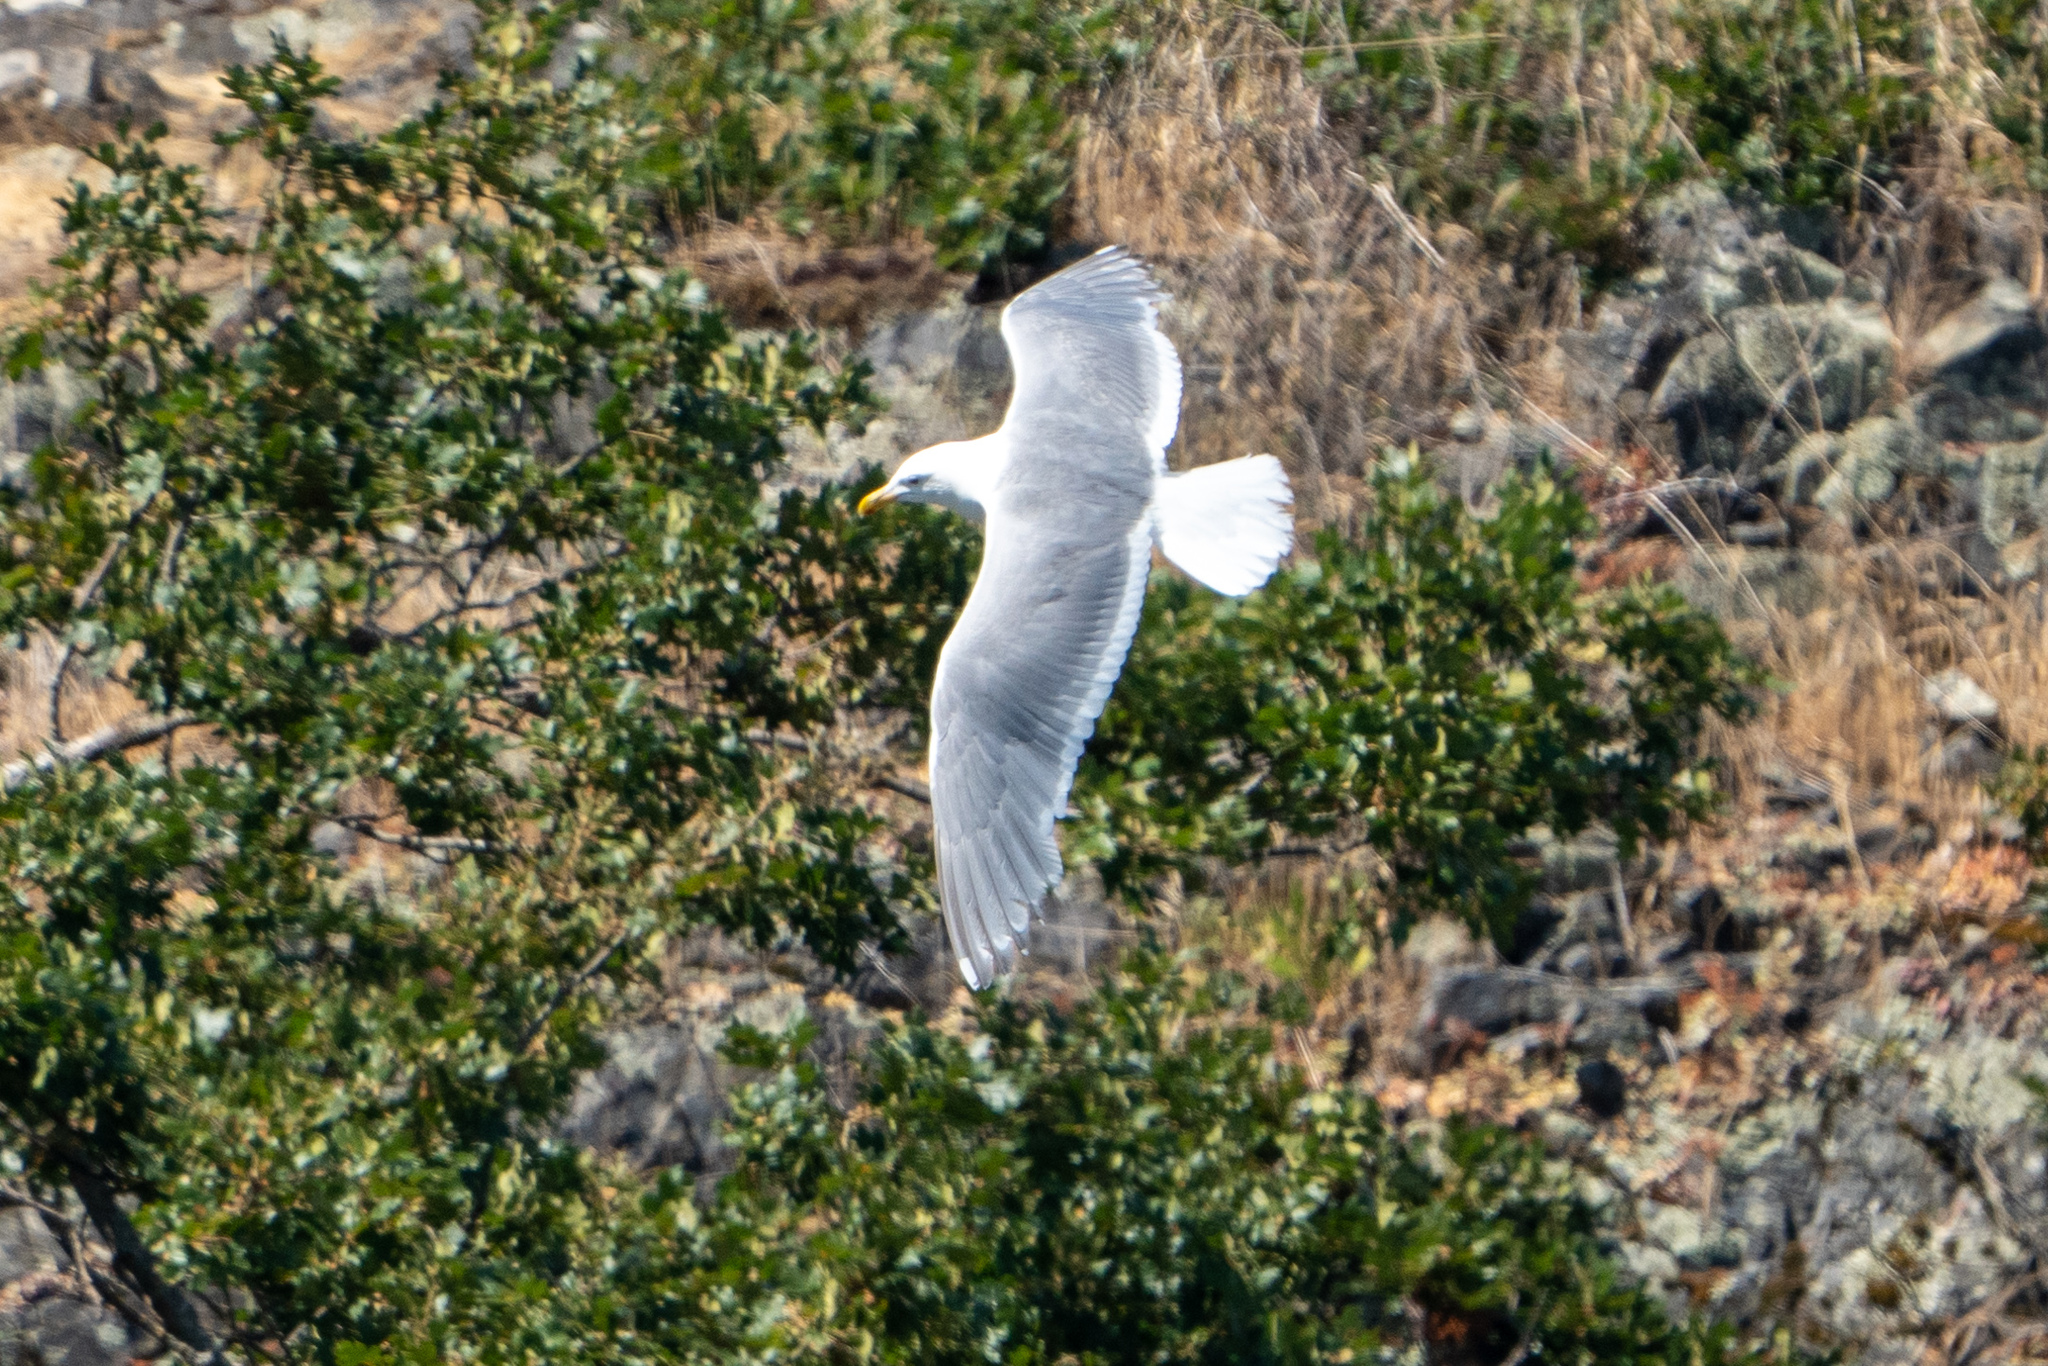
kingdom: Animalia
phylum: Chordata
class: Aves
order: Charadriiformes
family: Laridae
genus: Larus
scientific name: Larus glaucescens
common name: Glaucous-winged gull
